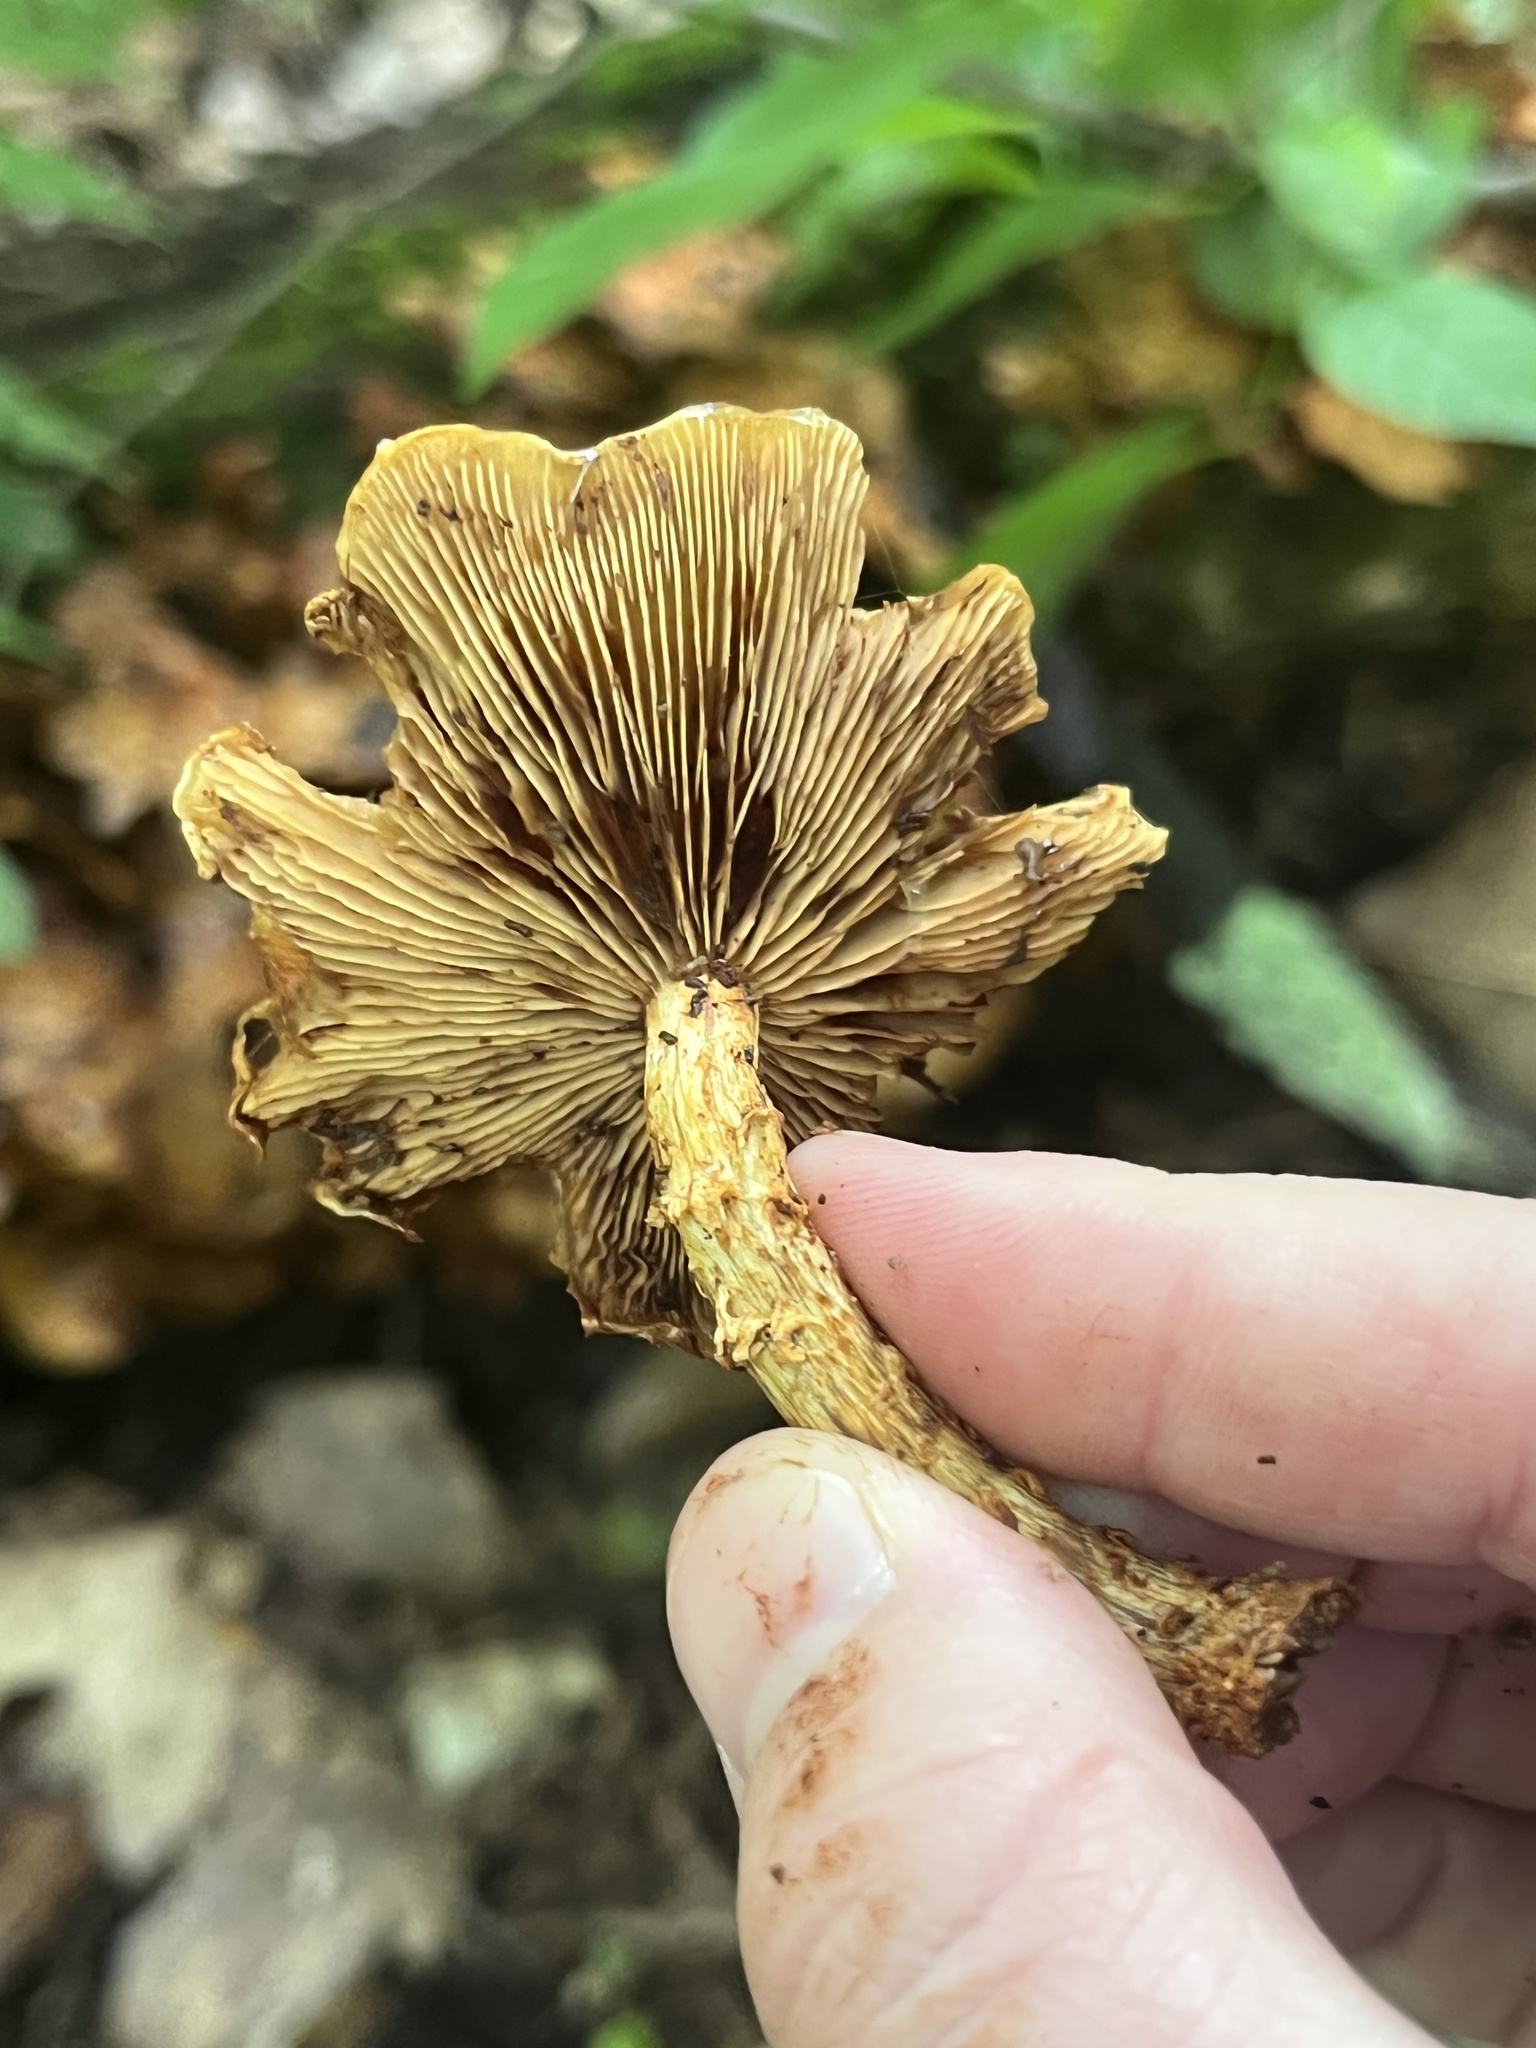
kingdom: Fungi
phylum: Basidiomycota
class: Agaricomycetes
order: Agaricales
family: Strophariaceae
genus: Pholiota
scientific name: Pholiota squarrosoides
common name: Sharp-scaly pholiota
